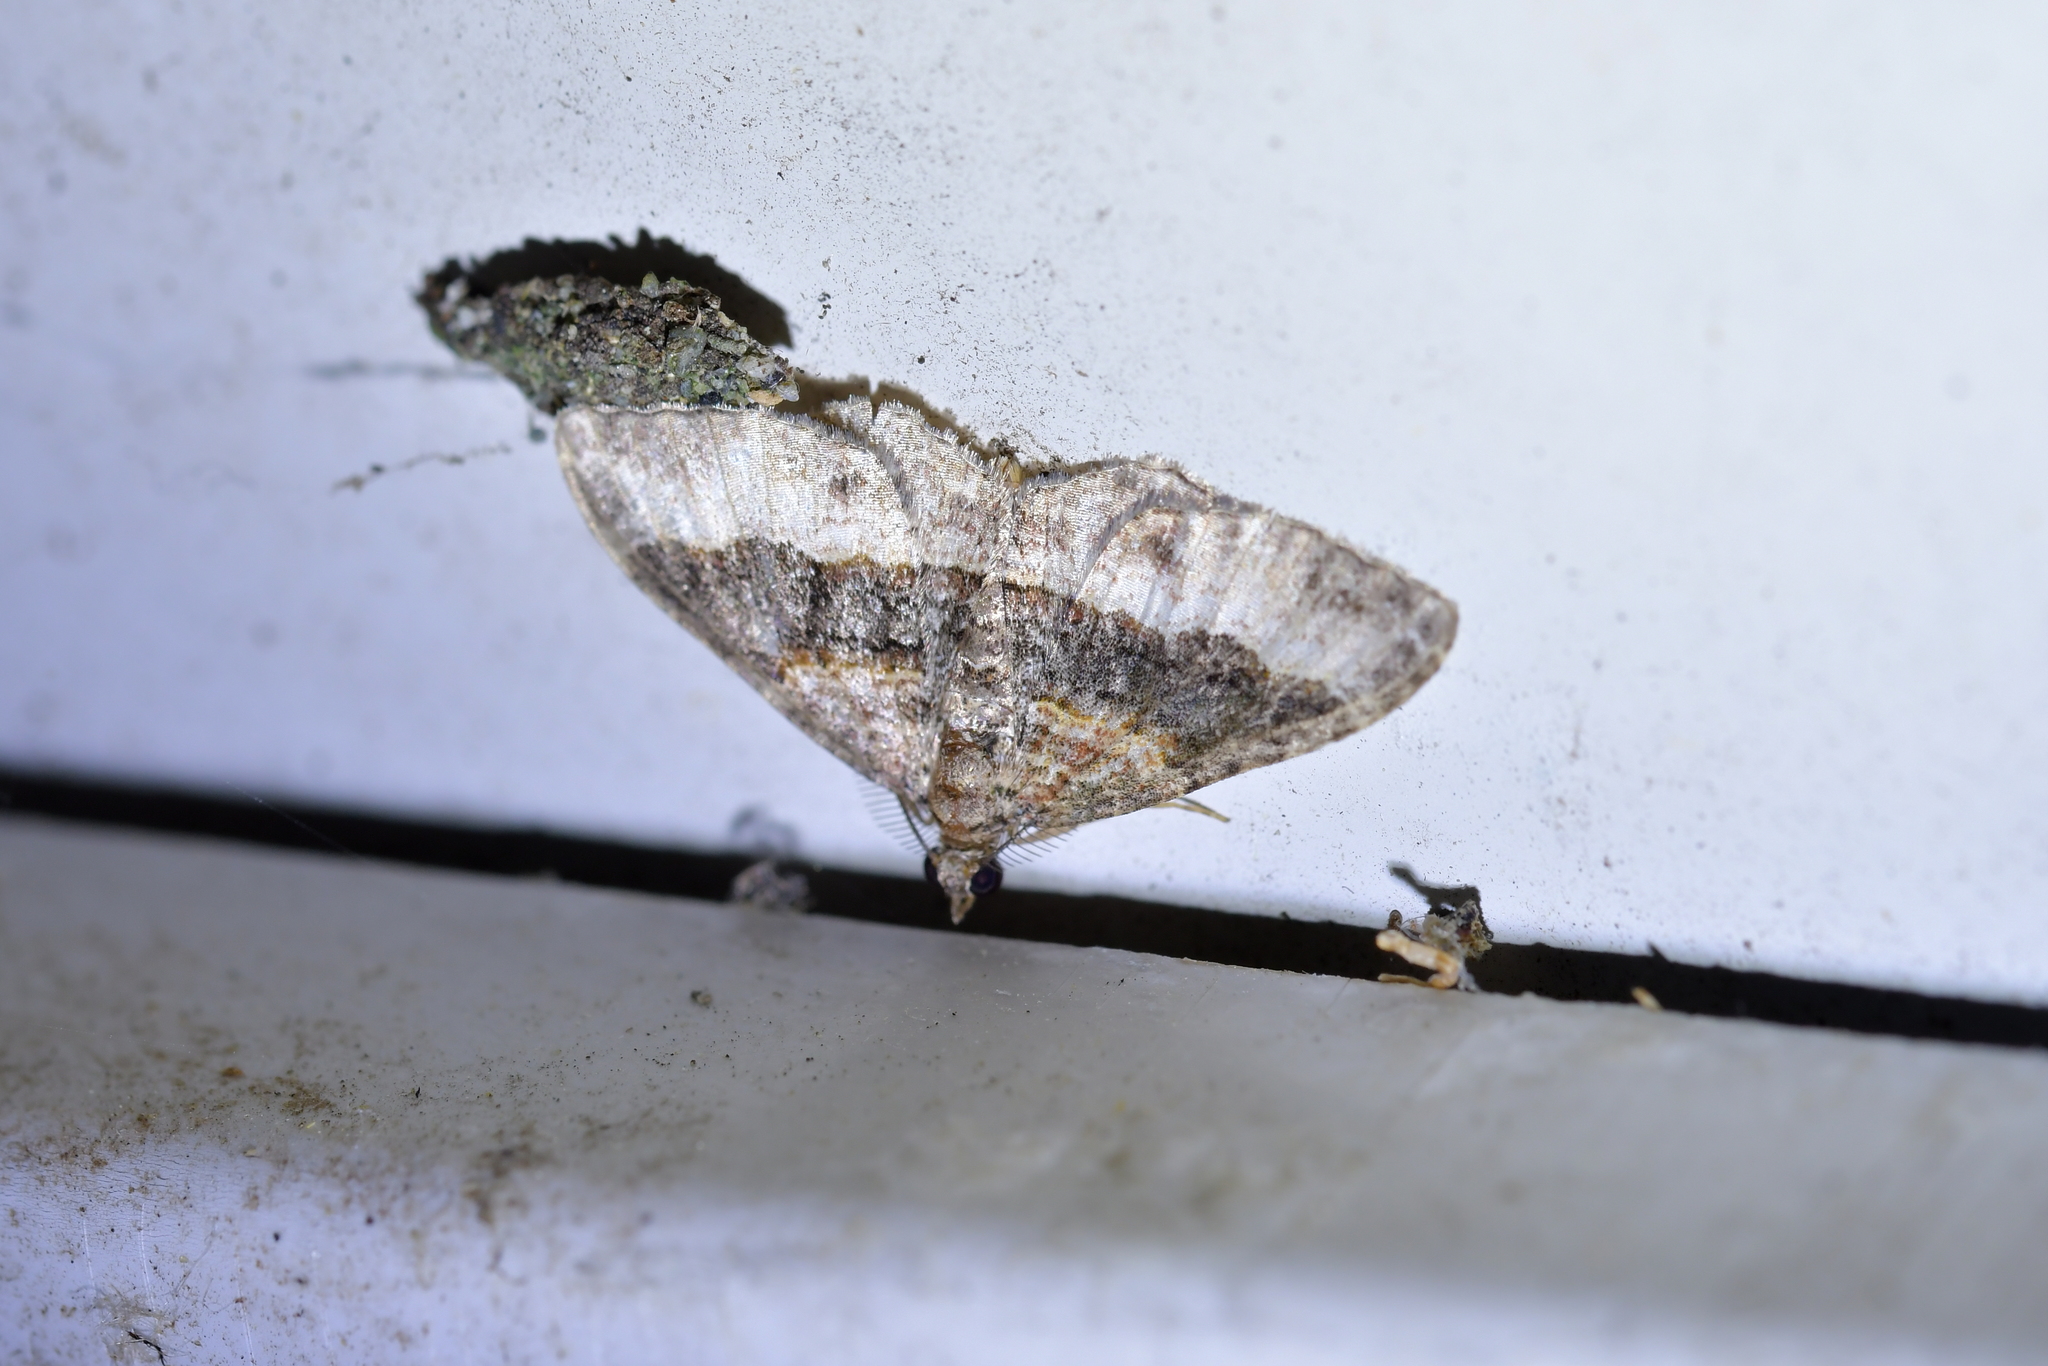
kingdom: Animalia
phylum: Arthropoda
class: Insecta
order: Lepidoptera
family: Geometridae
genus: Epyaxa
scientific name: Epyaxa lucidata
